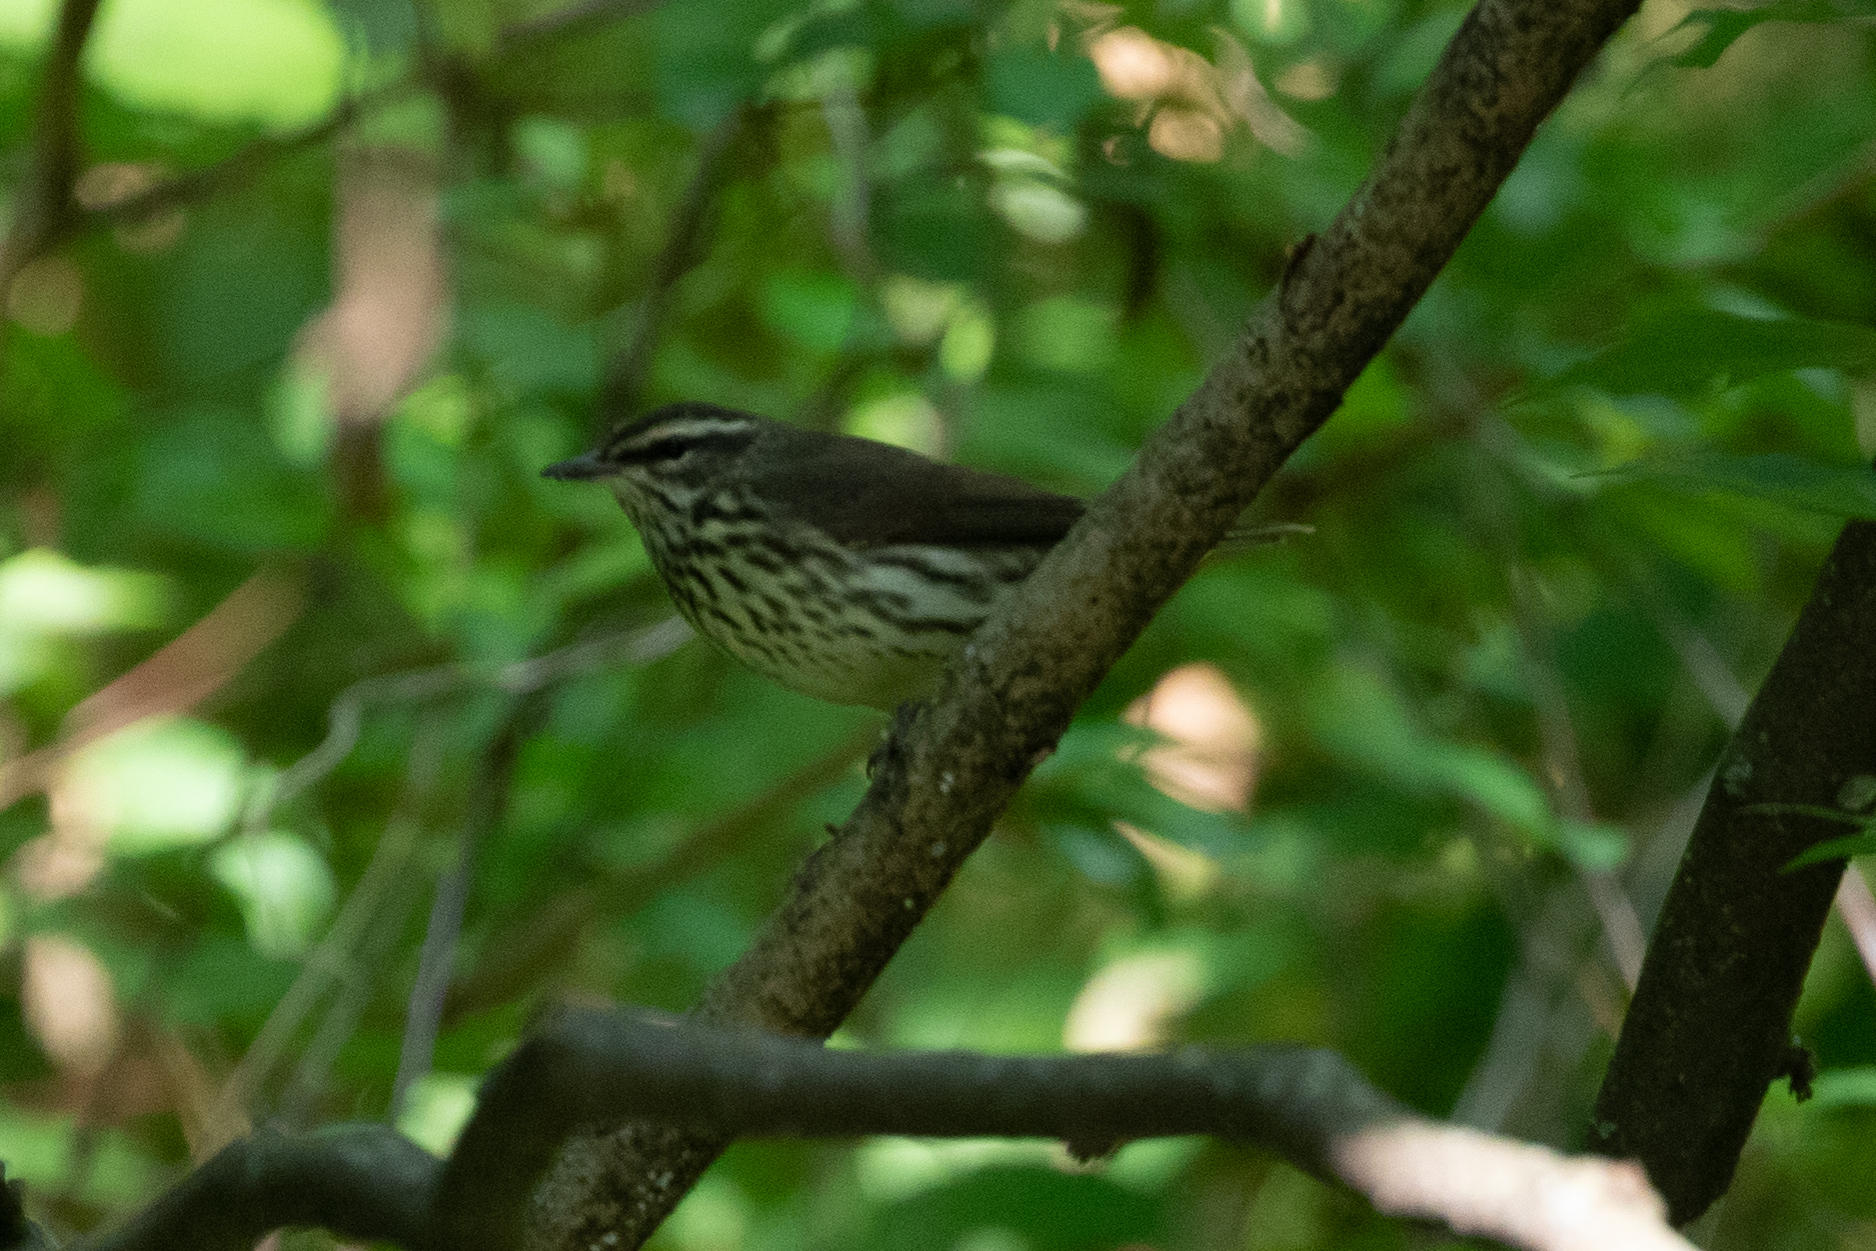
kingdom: Animalia
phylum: Chordata
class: Aves
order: Passeriformes
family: Parulidae
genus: Parkesia
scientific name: Parkesia noveboracensis
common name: Northern waterthrush
